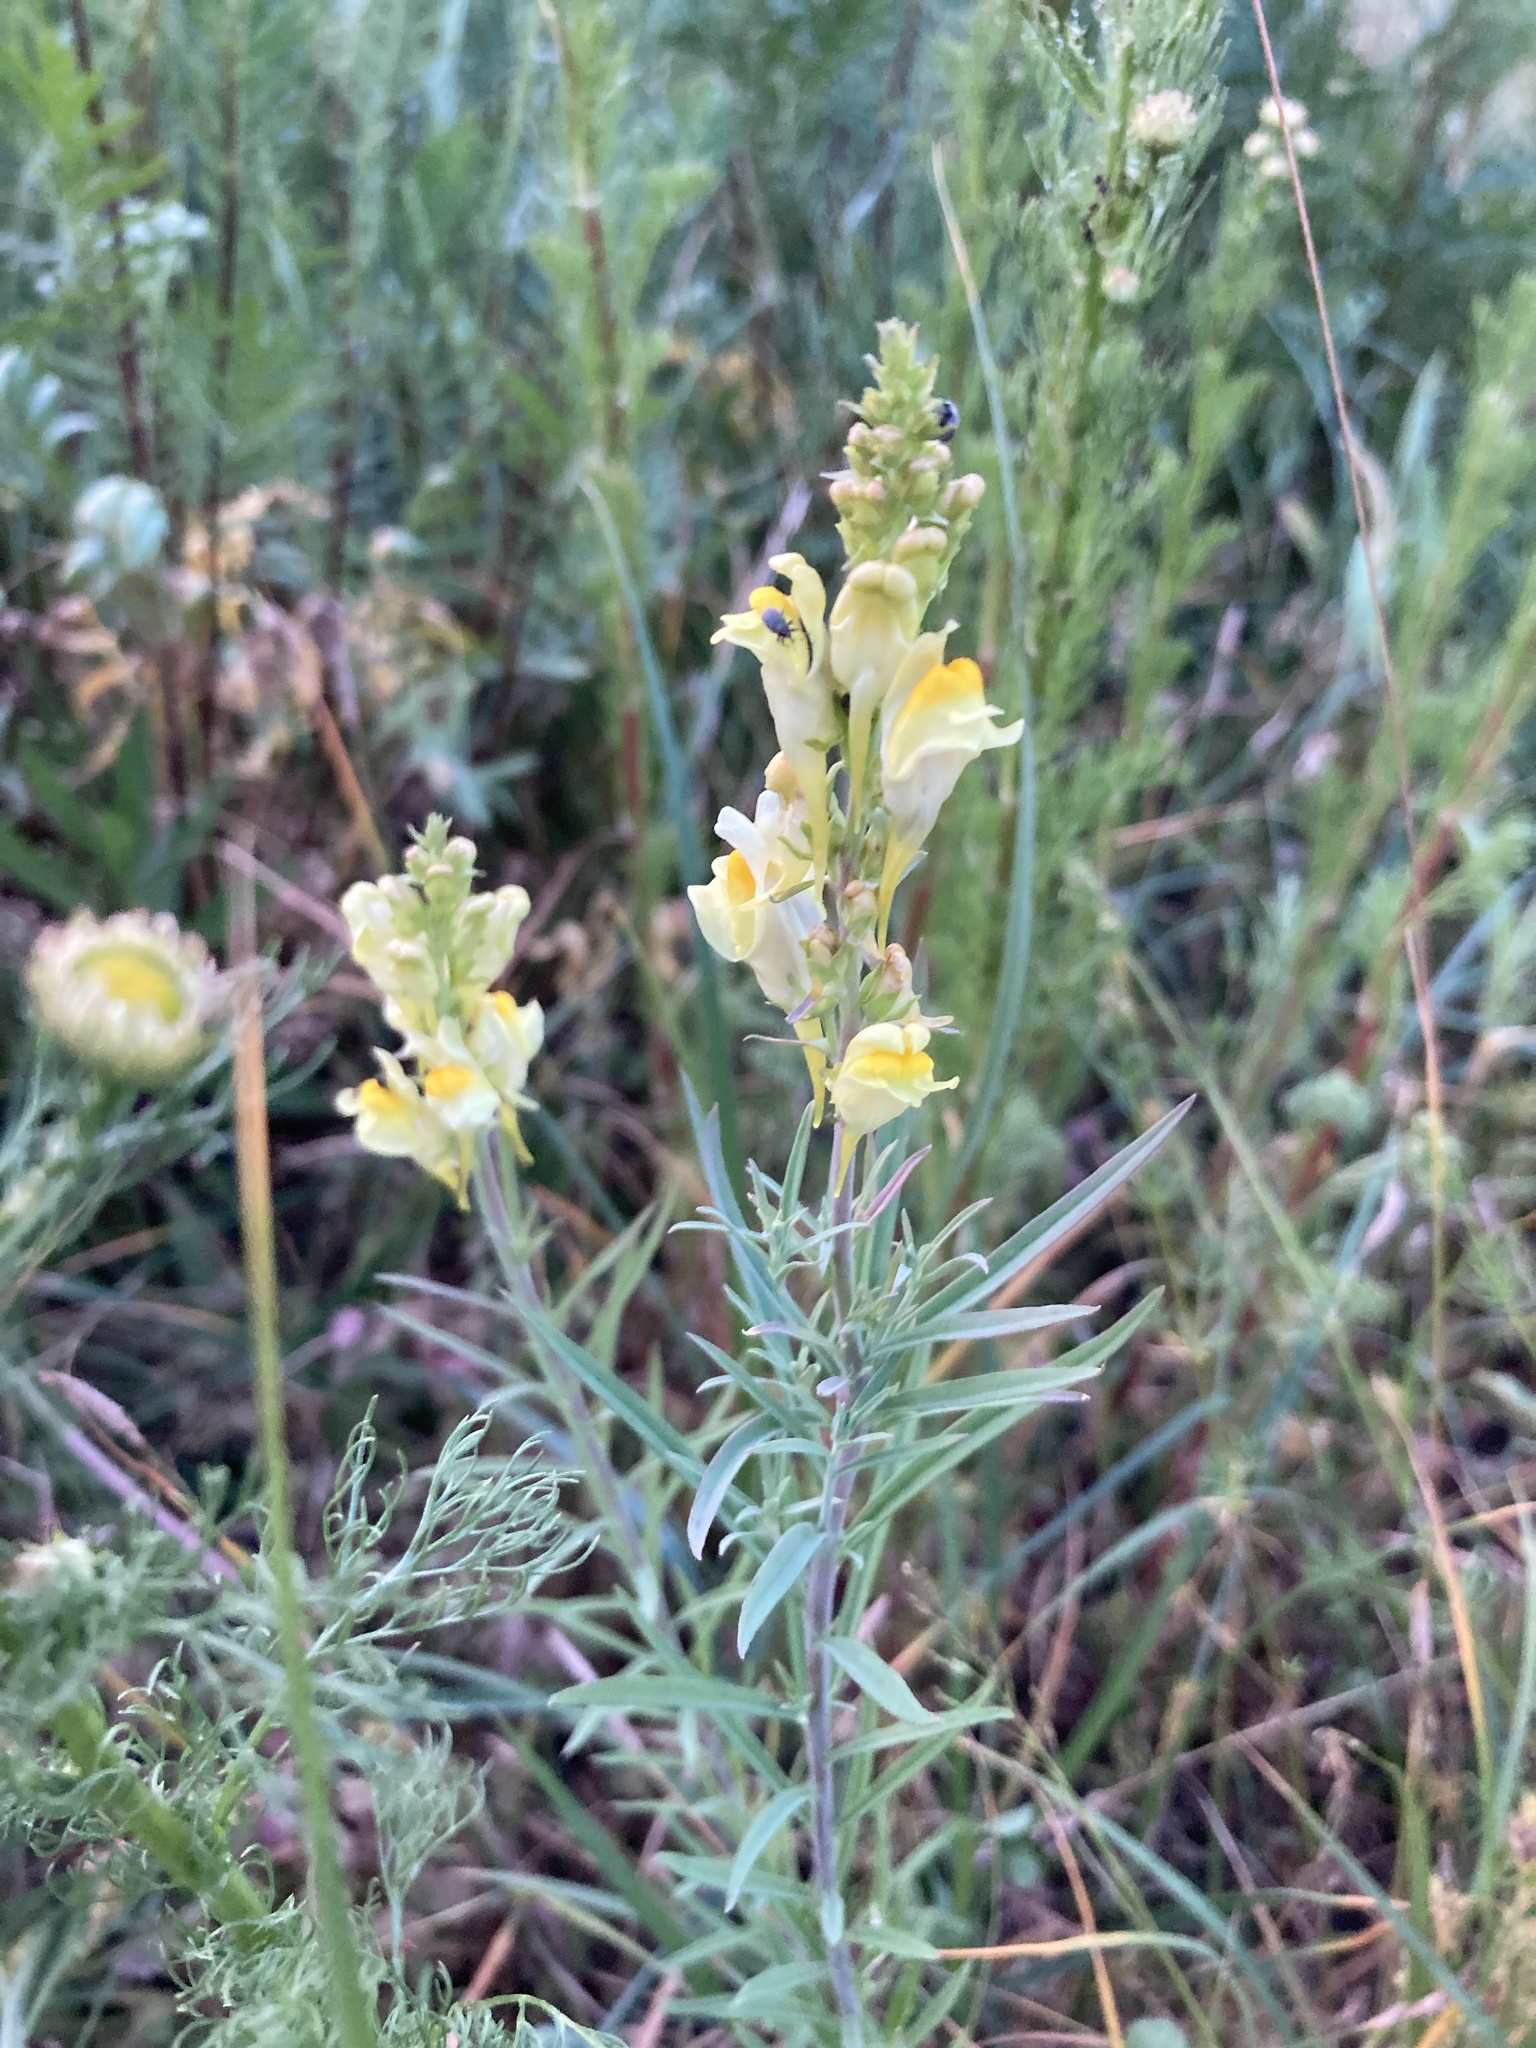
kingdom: Plantae
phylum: Tracheophyta
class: Magnoliopsida
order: Lamiales
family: Plantaginaceae
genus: Linaria
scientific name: Linaria vulgaris
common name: Butter and eggs
